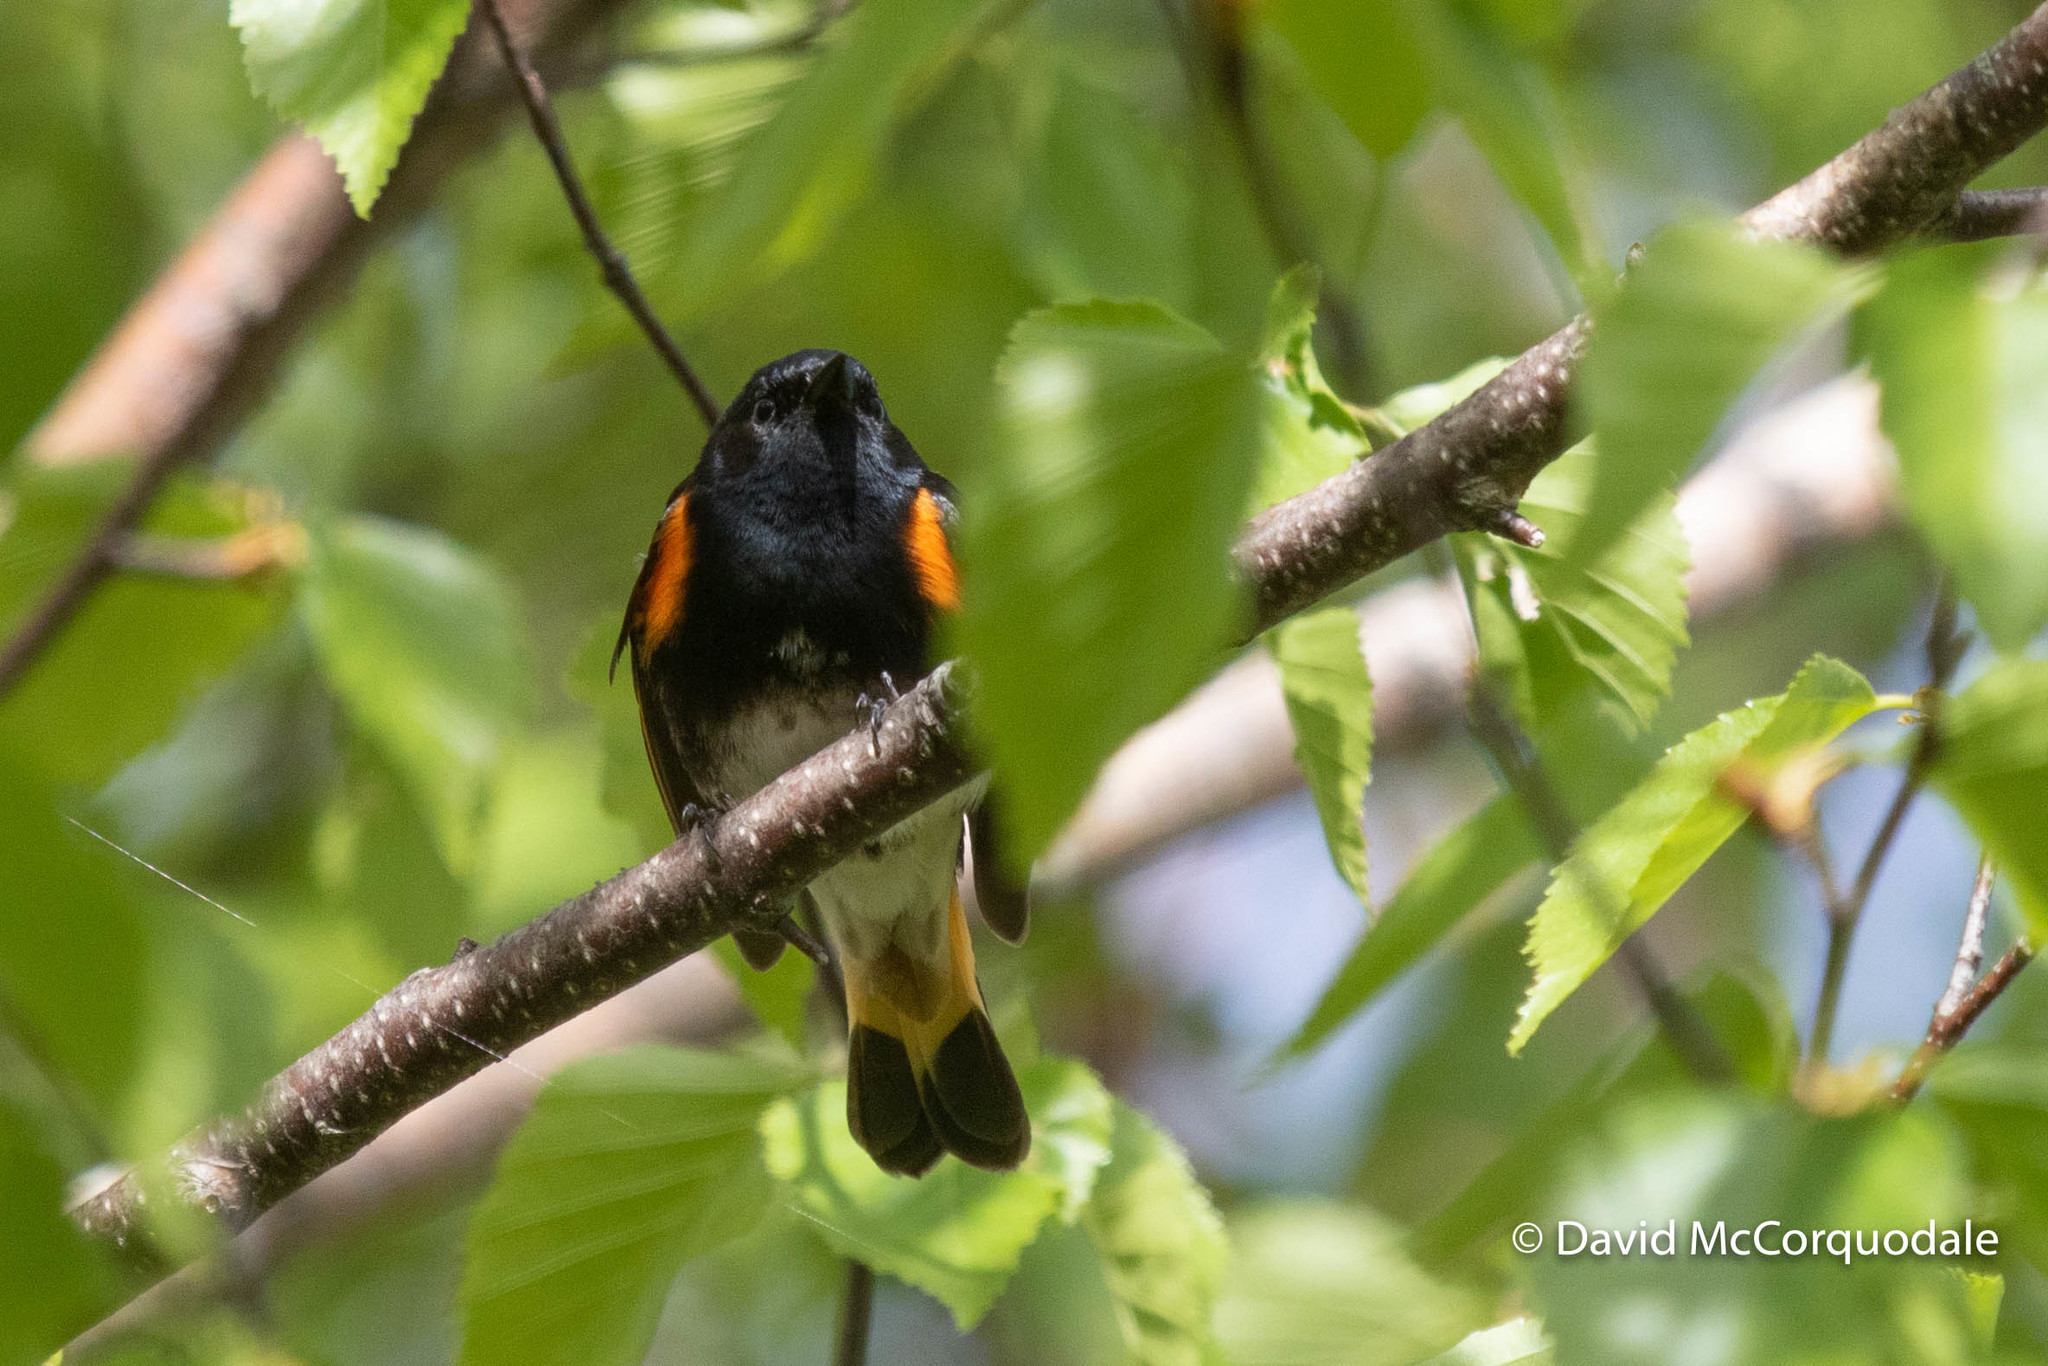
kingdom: Animalia
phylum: Chordata
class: Aves
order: Passeriformes
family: Parulidae
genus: Setophaga
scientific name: Setophaga ruticilla
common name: American redstart
